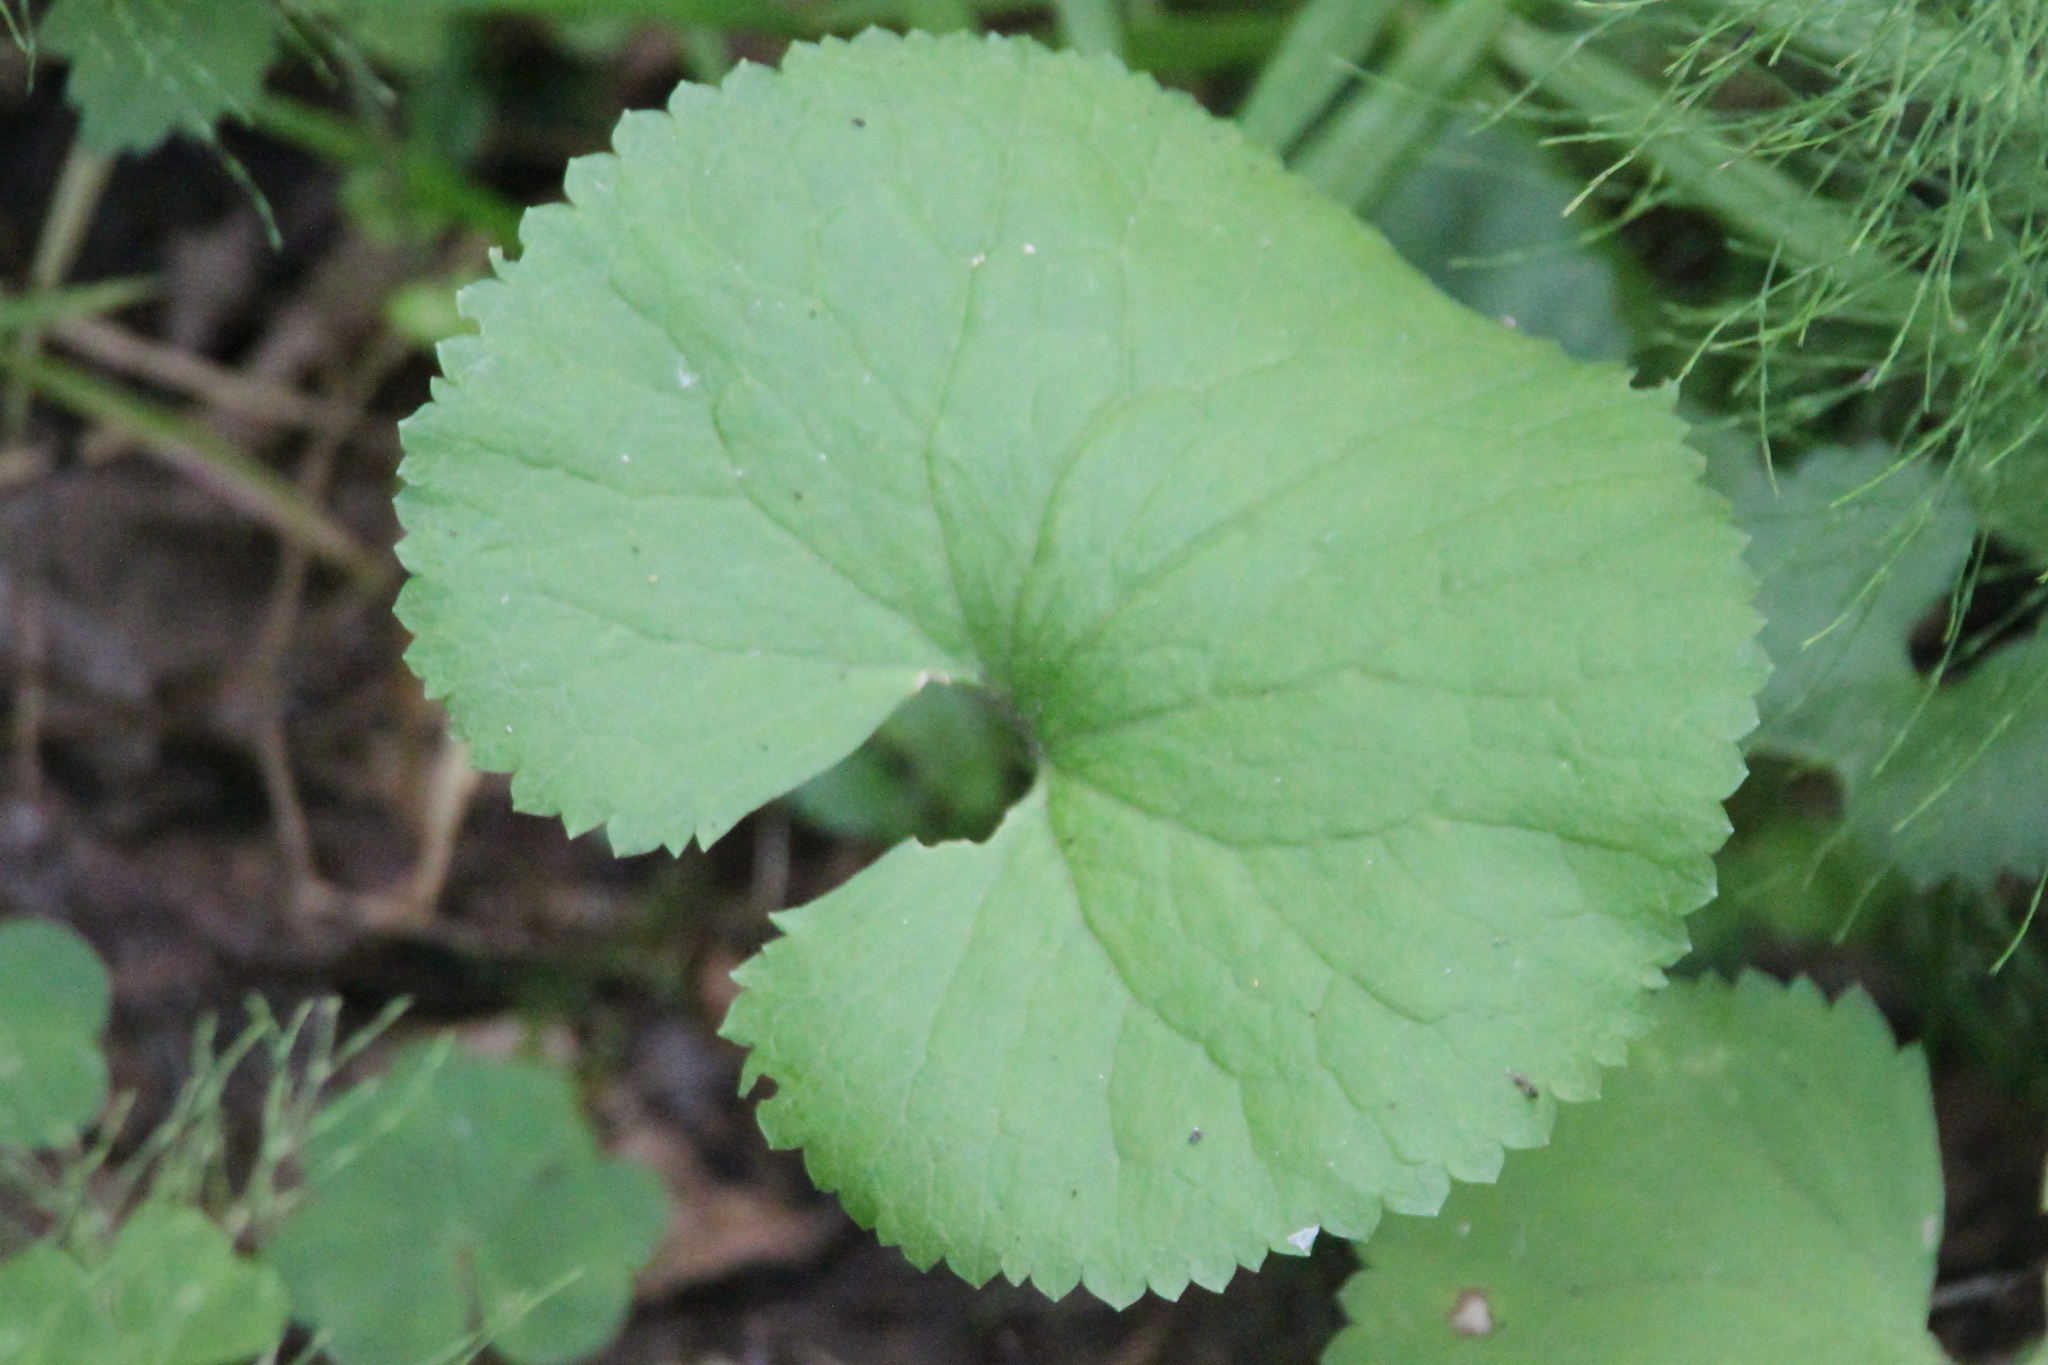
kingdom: Plantae
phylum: Tracheophyta
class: Magnoliopsida
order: Ranunculales
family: Ranunculaceae
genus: Ranunculus
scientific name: Ranunculus cassubicus
